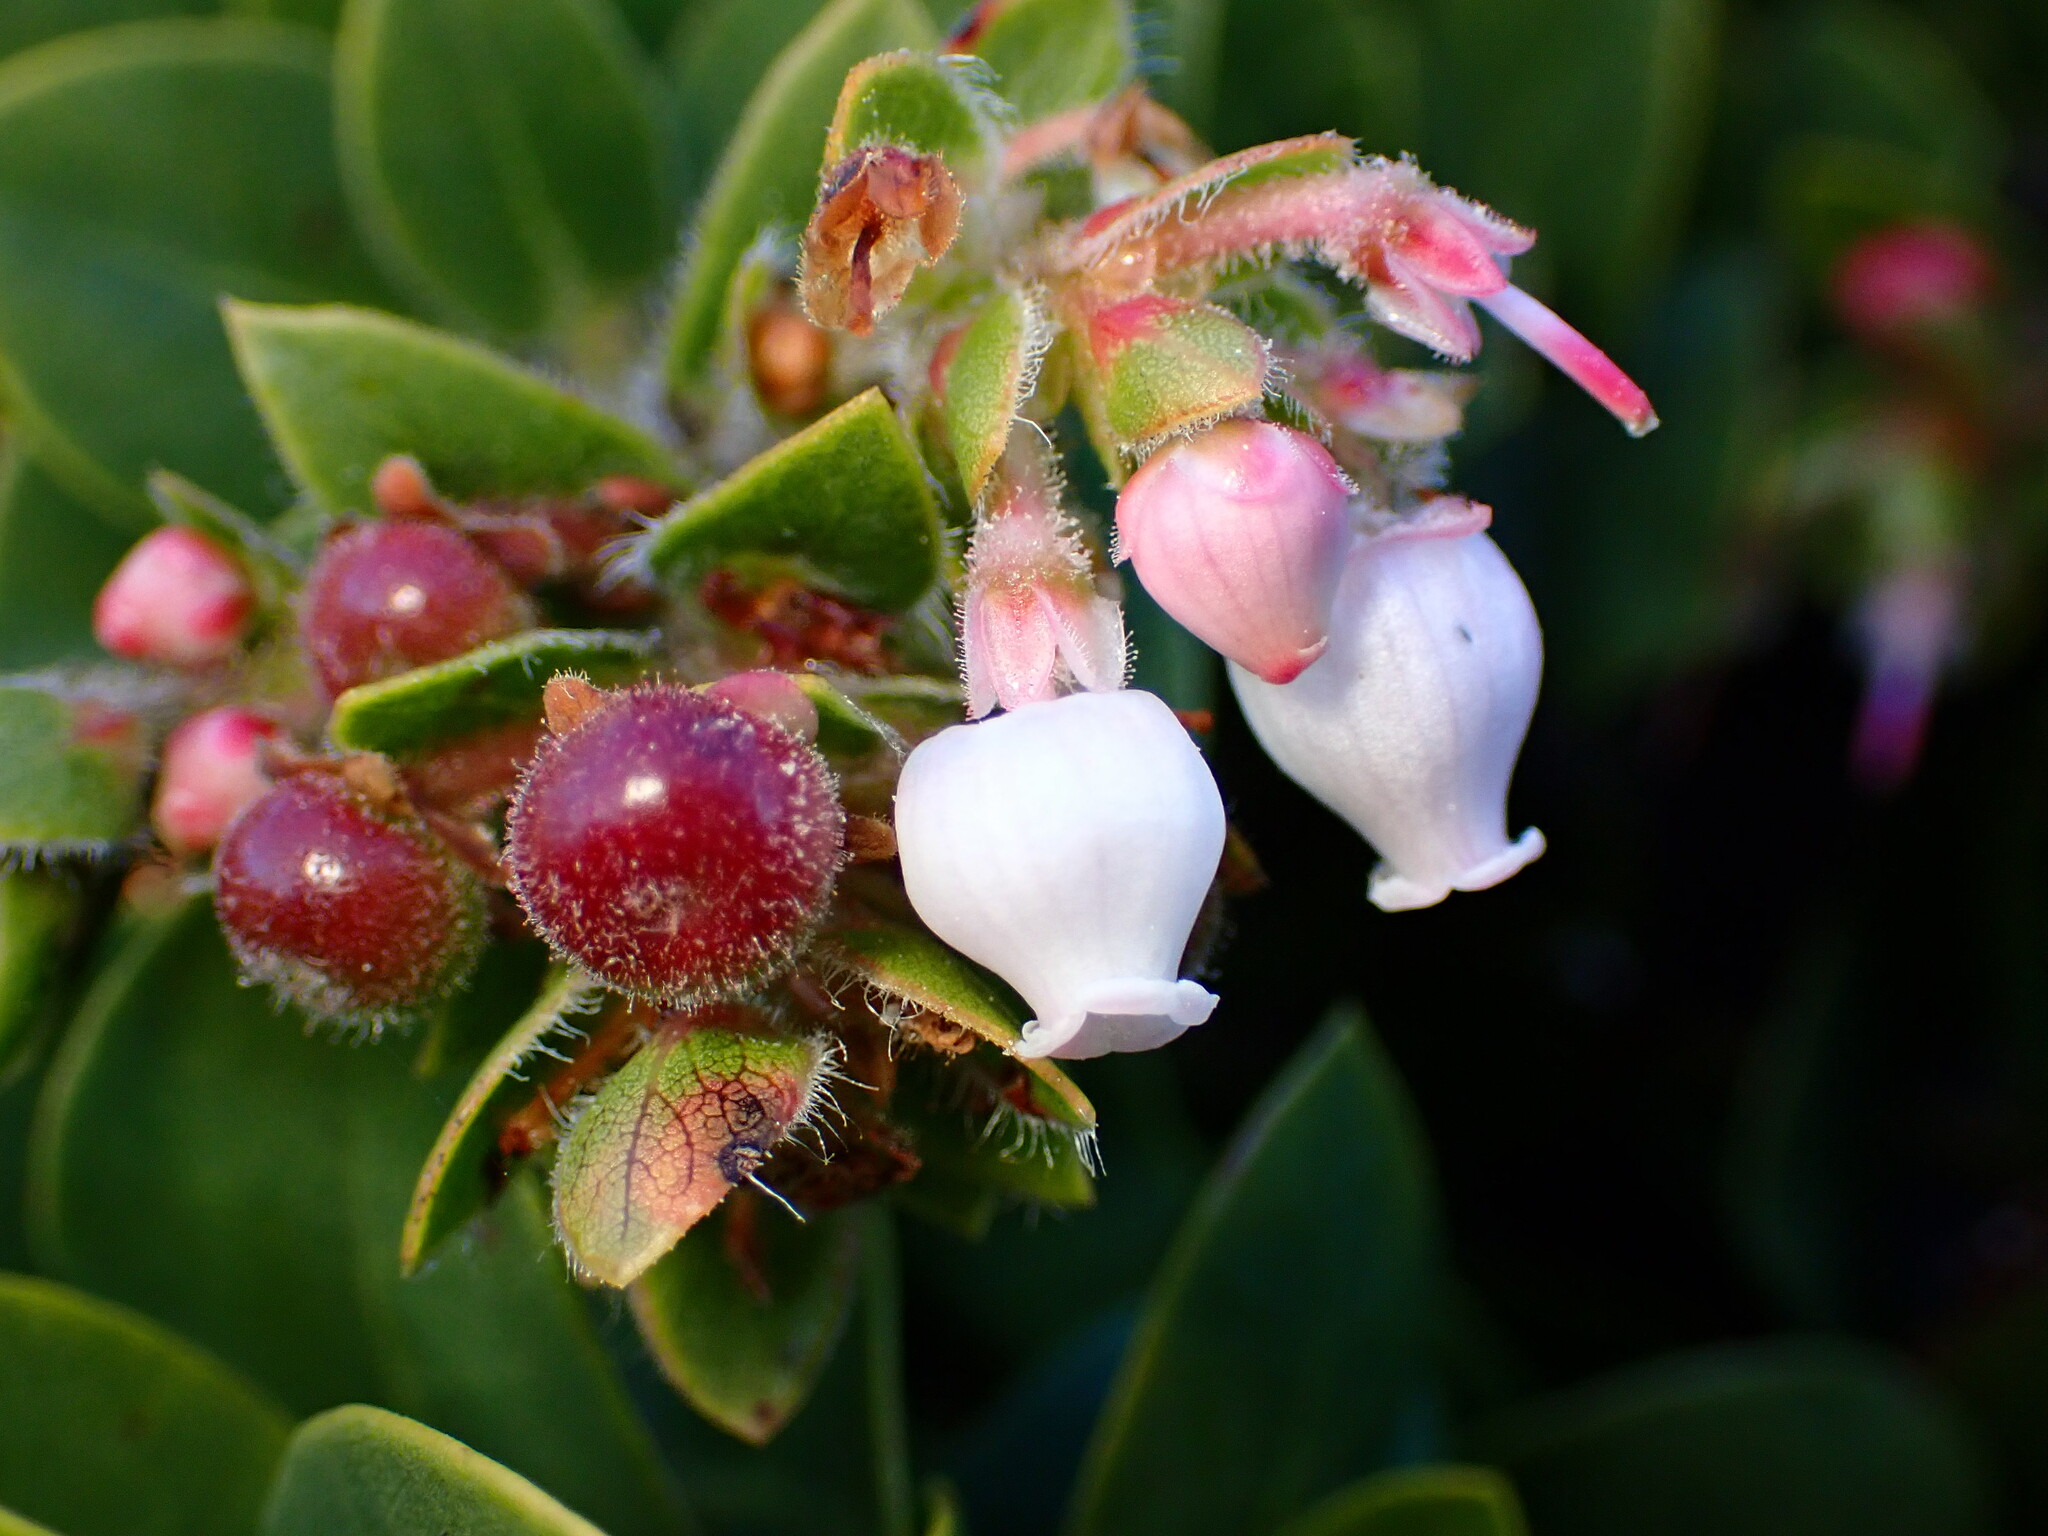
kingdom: Plantae
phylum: Tracheophyta
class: Magnoliopsida
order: Ericales
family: Ericaceae
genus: Arctostaphylos
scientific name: Arctostaphylos imbricata
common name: San bruno mountain manzanita
